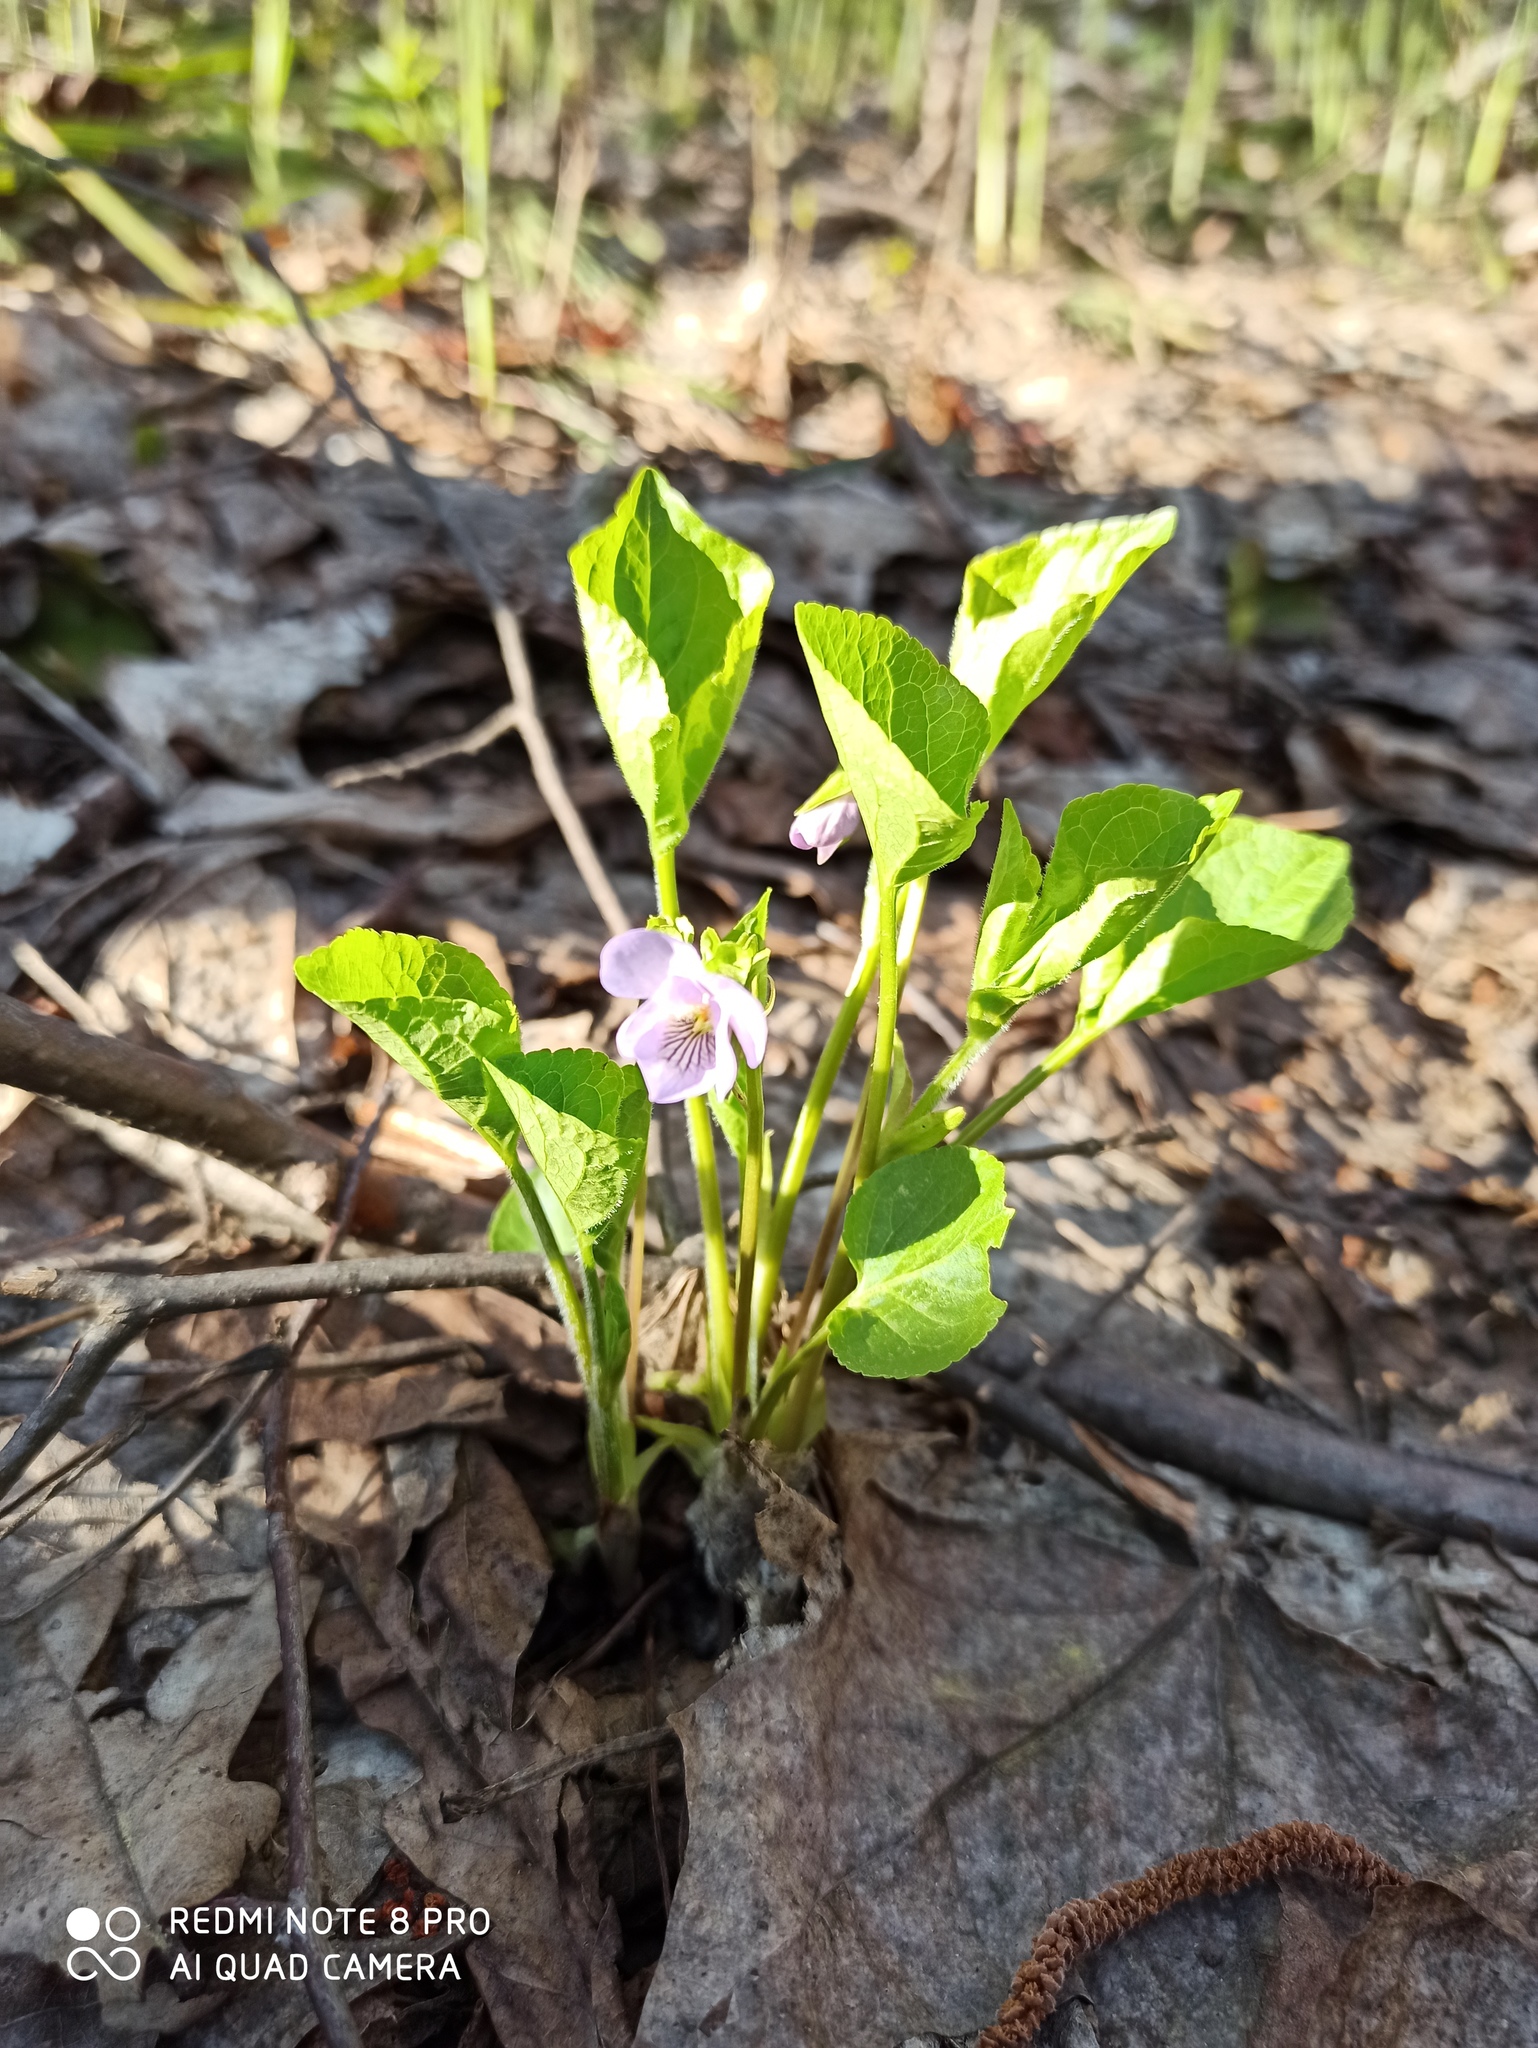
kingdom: Plantae
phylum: Tracheophyta
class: Magnoliopsida
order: Malpighiales
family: Violaceae
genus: Viola
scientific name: Viola mirabilis
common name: Wonder violet
